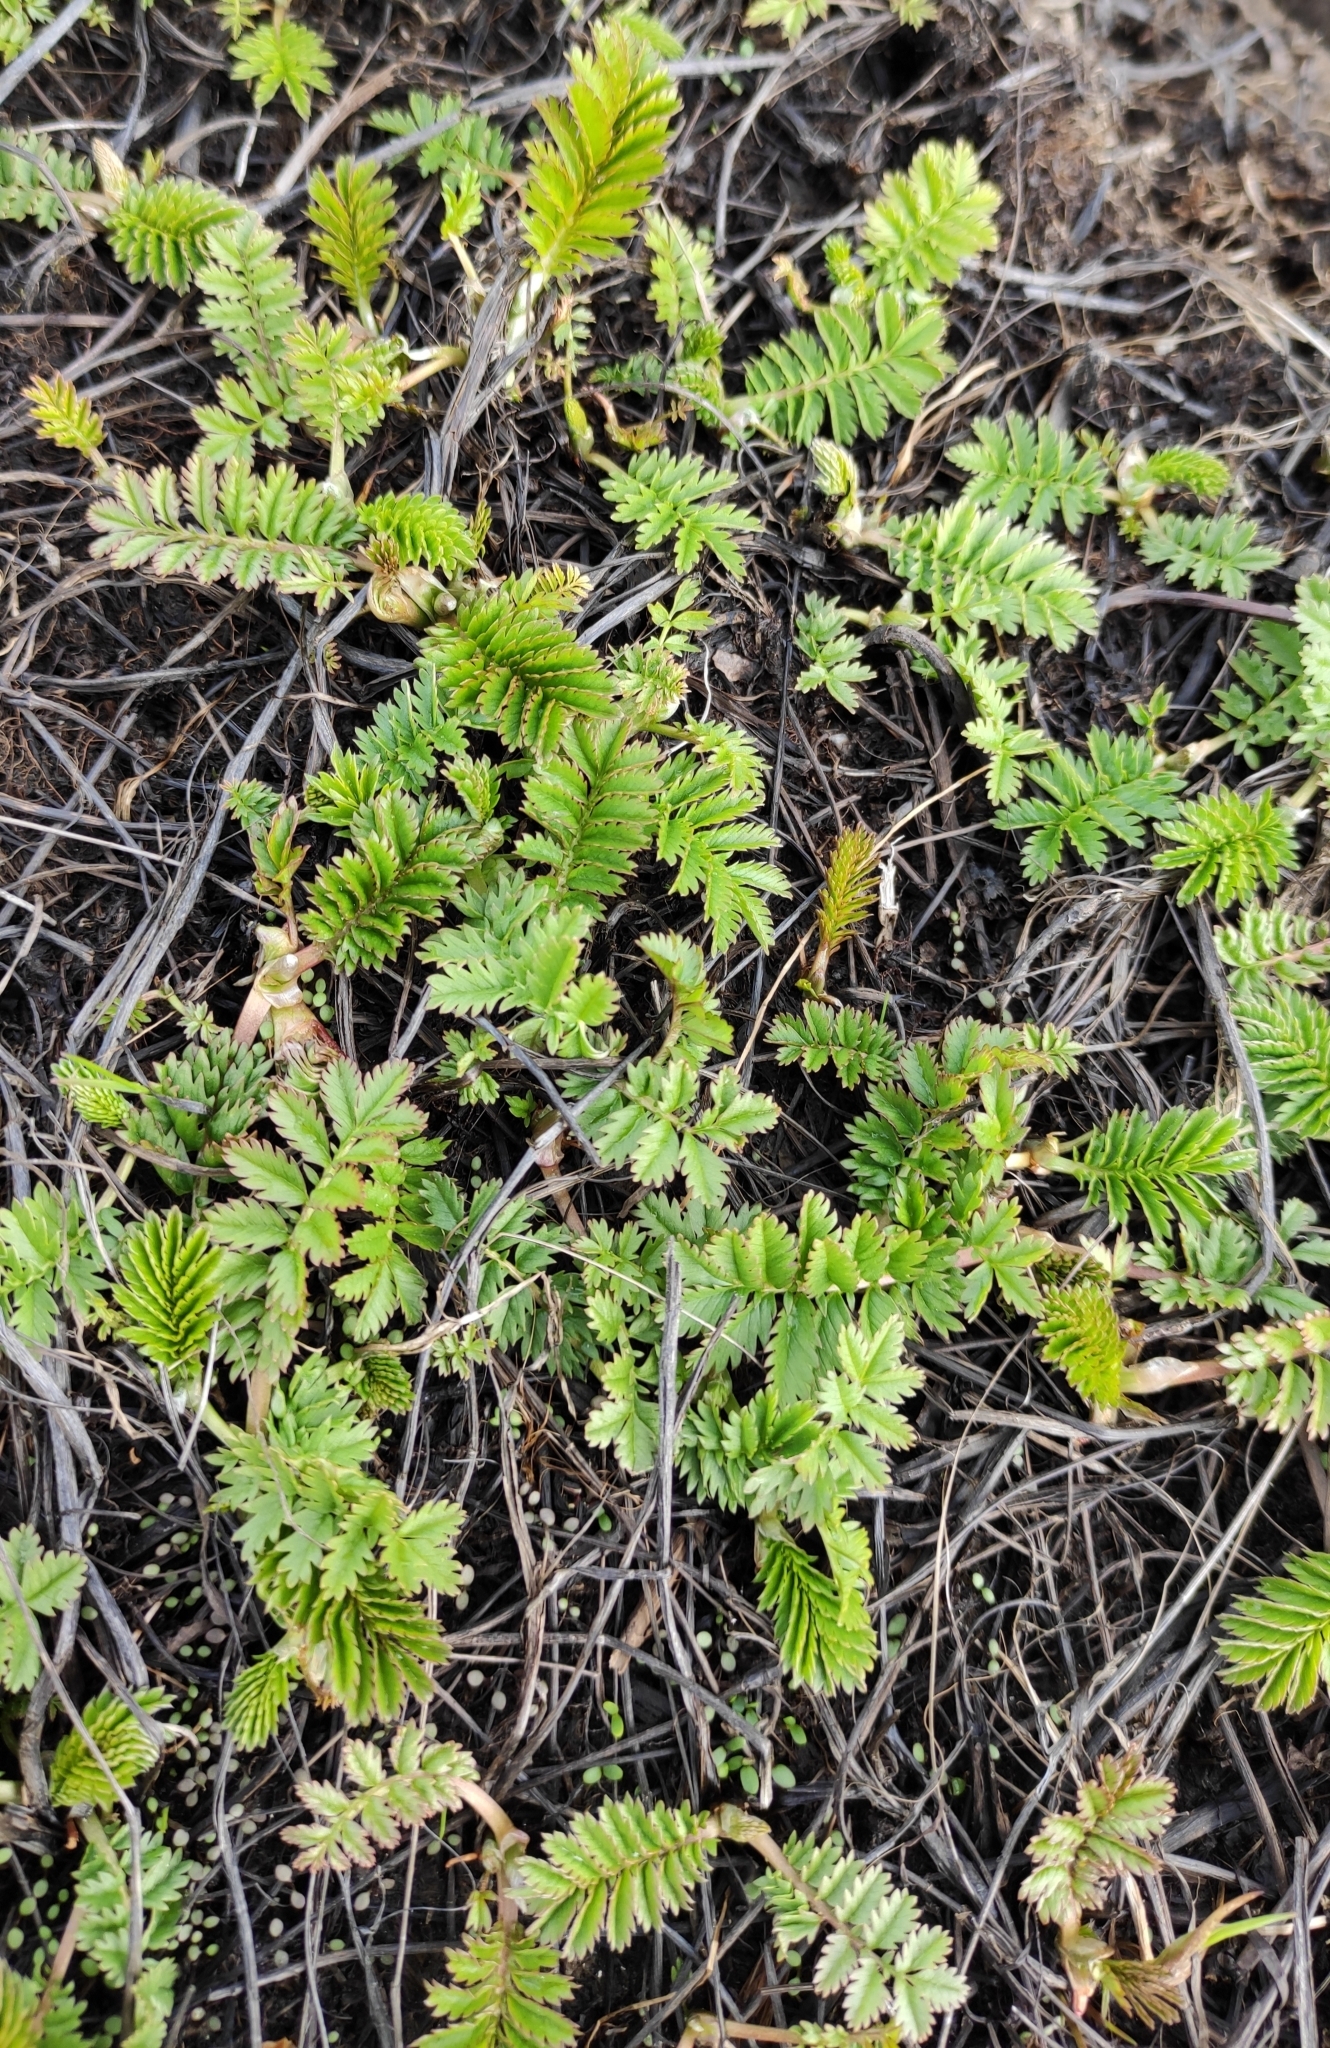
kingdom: Plantae
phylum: Tracheophyta
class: Magnoliopsida
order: Rosales
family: Rosaceae
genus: Argentina
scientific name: Argentina anserina
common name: Common silverweed
